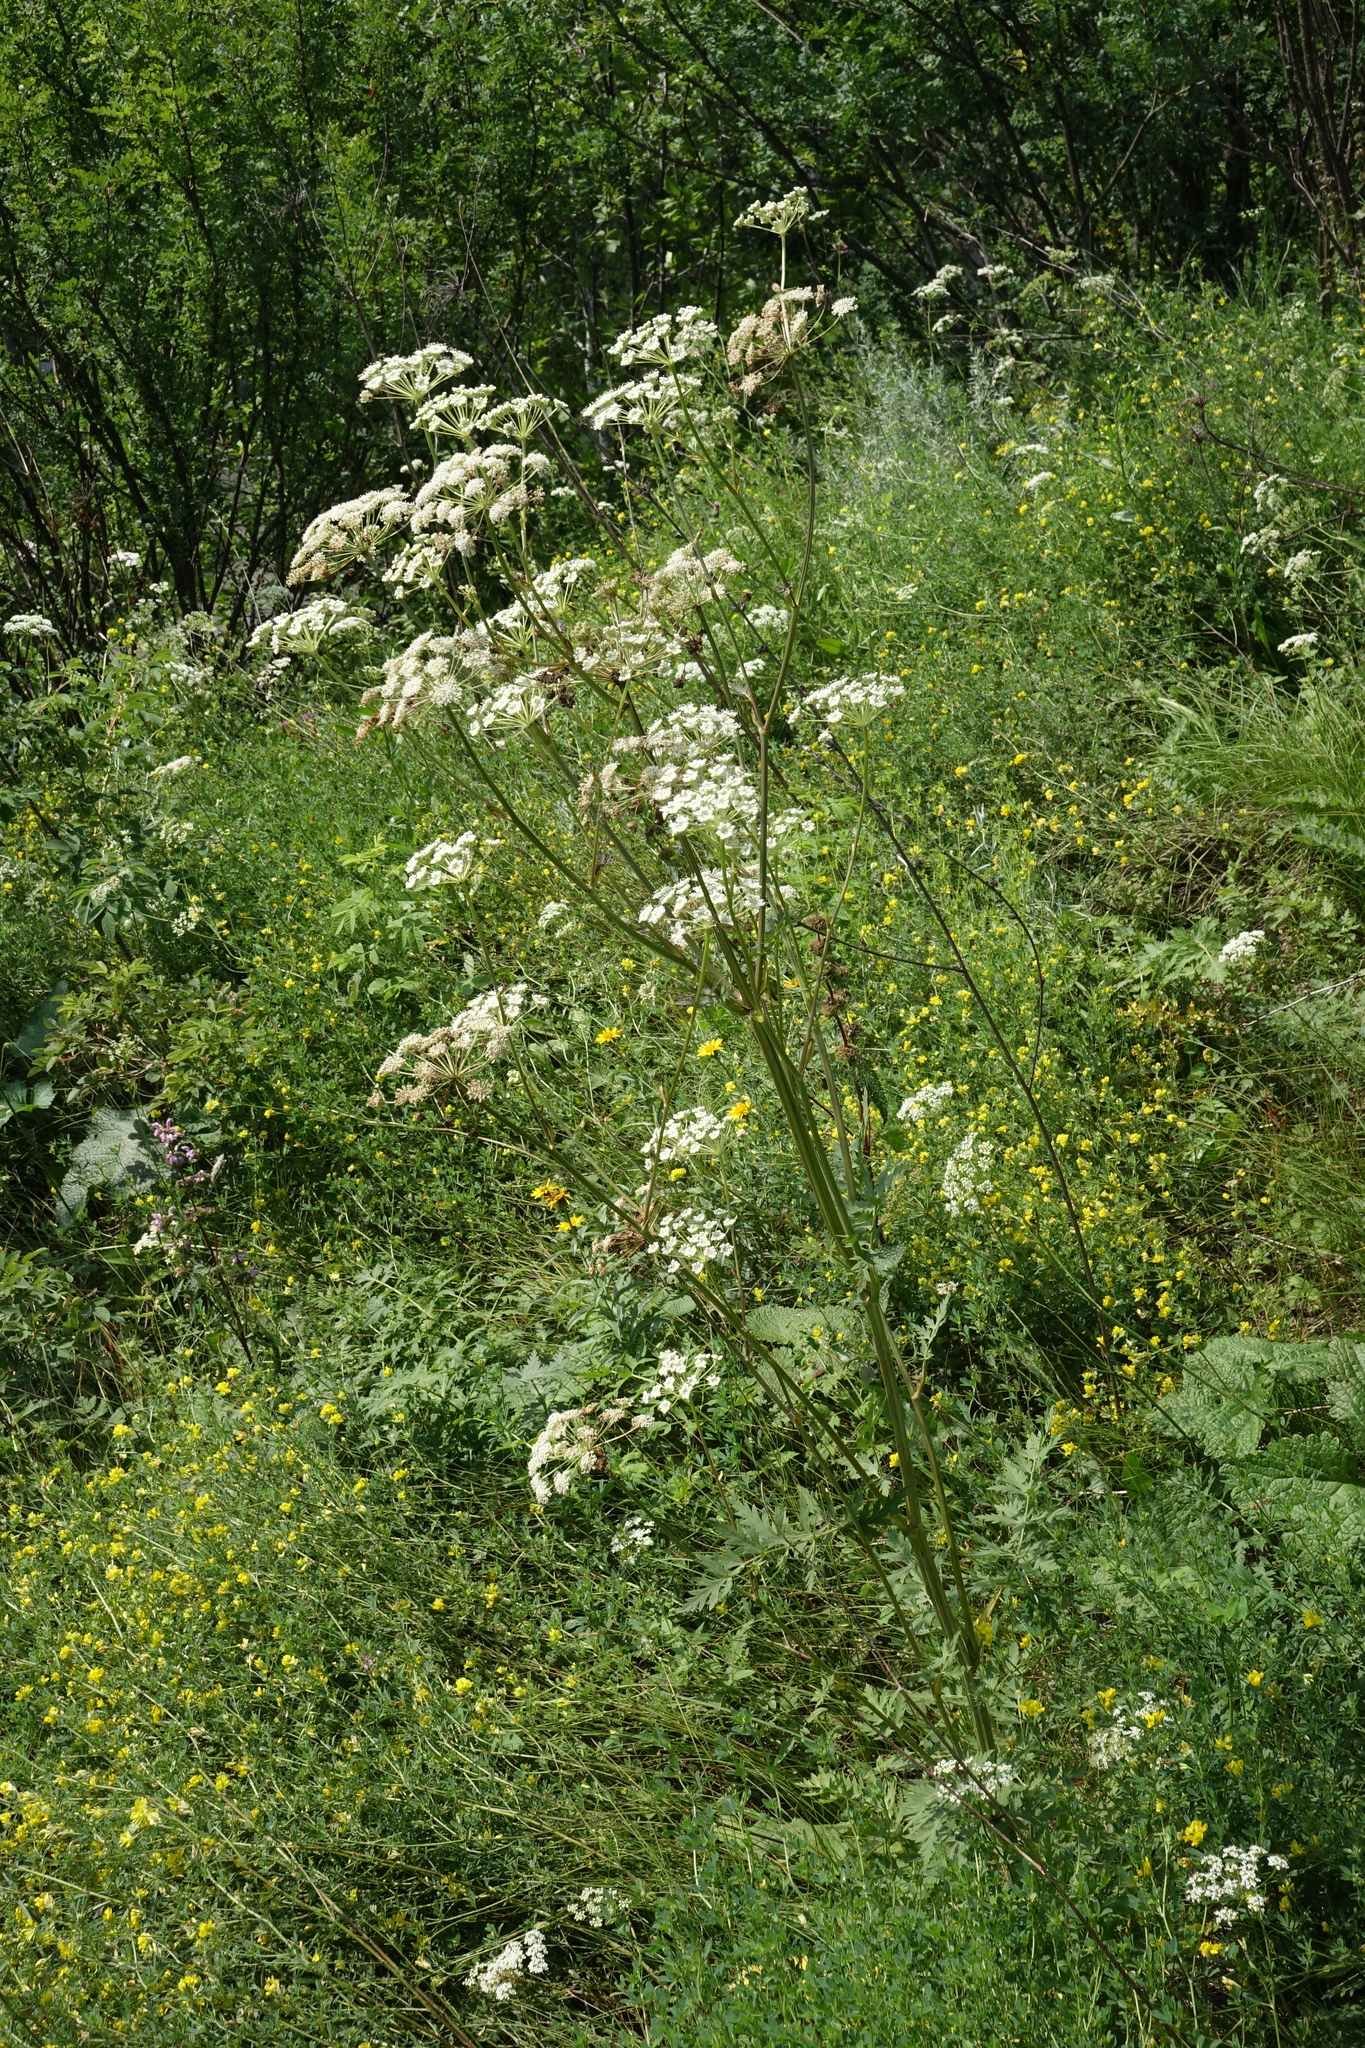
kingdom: Plantae
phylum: Tracheophyta
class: Magnoliopsida
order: Apiales
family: Apiaceae
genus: Seseli
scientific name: Seseli libanotis
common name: Mooncarrot
